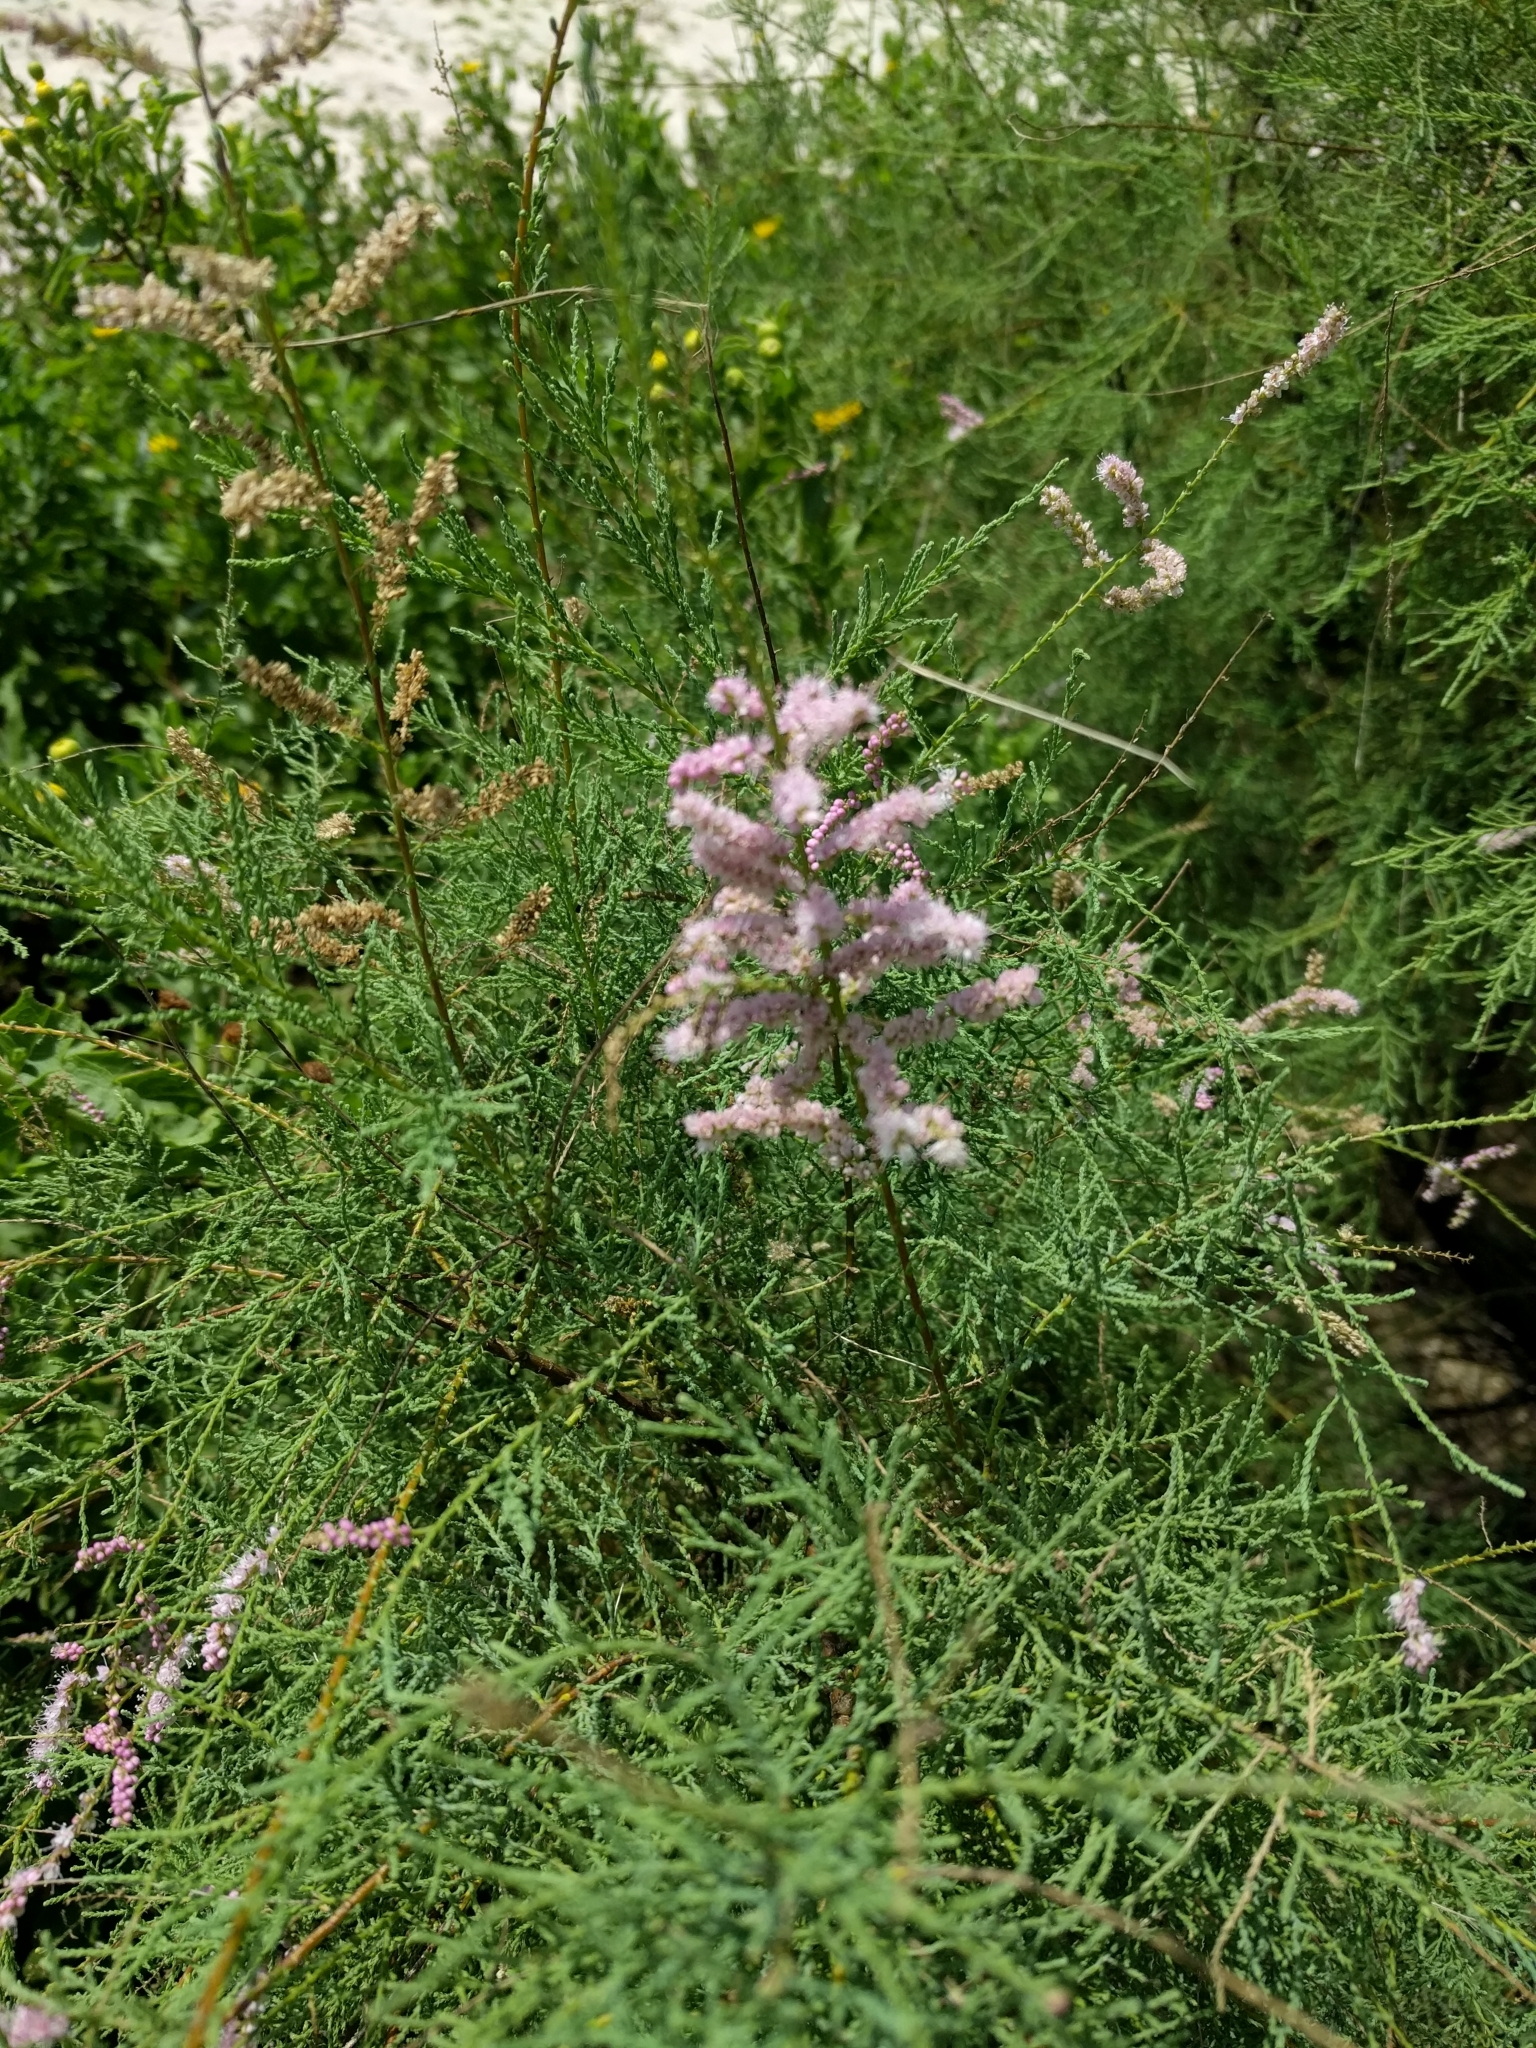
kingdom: Plantae
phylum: Tracheophyta
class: Magnoliopsida
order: Caryophyllales
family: Tamaricaceae
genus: Tamarix
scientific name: Tamarix ramosissima
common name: Pink tamarisk
